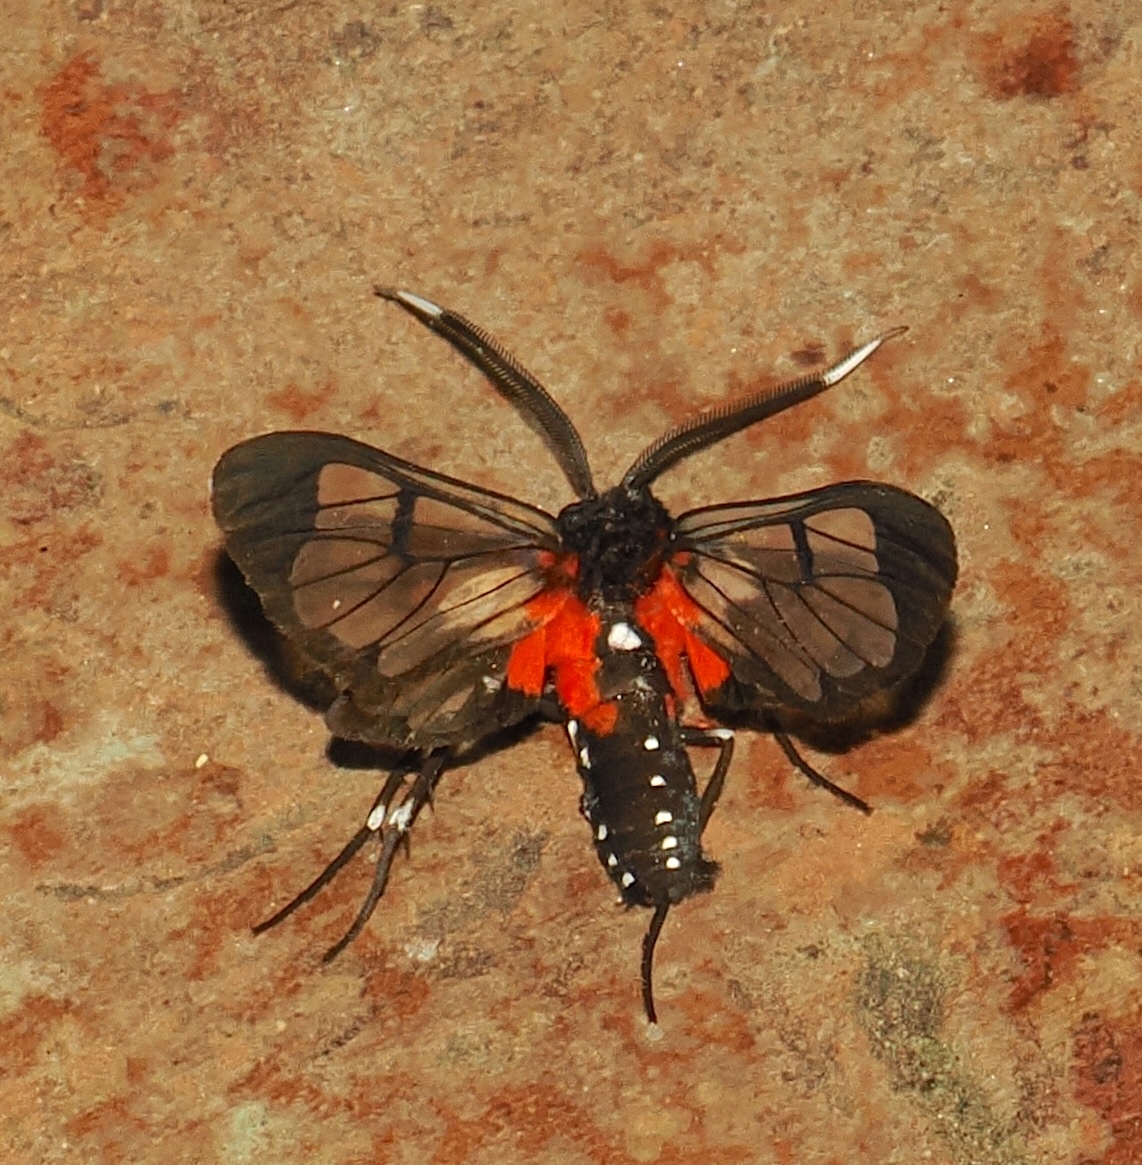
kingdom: Animalia
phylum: Arthropoda
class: Insecta
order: Lepidoptera
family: Erebidae
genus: Cosmosoma
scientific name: Cosmosoma Erruca cardinale
